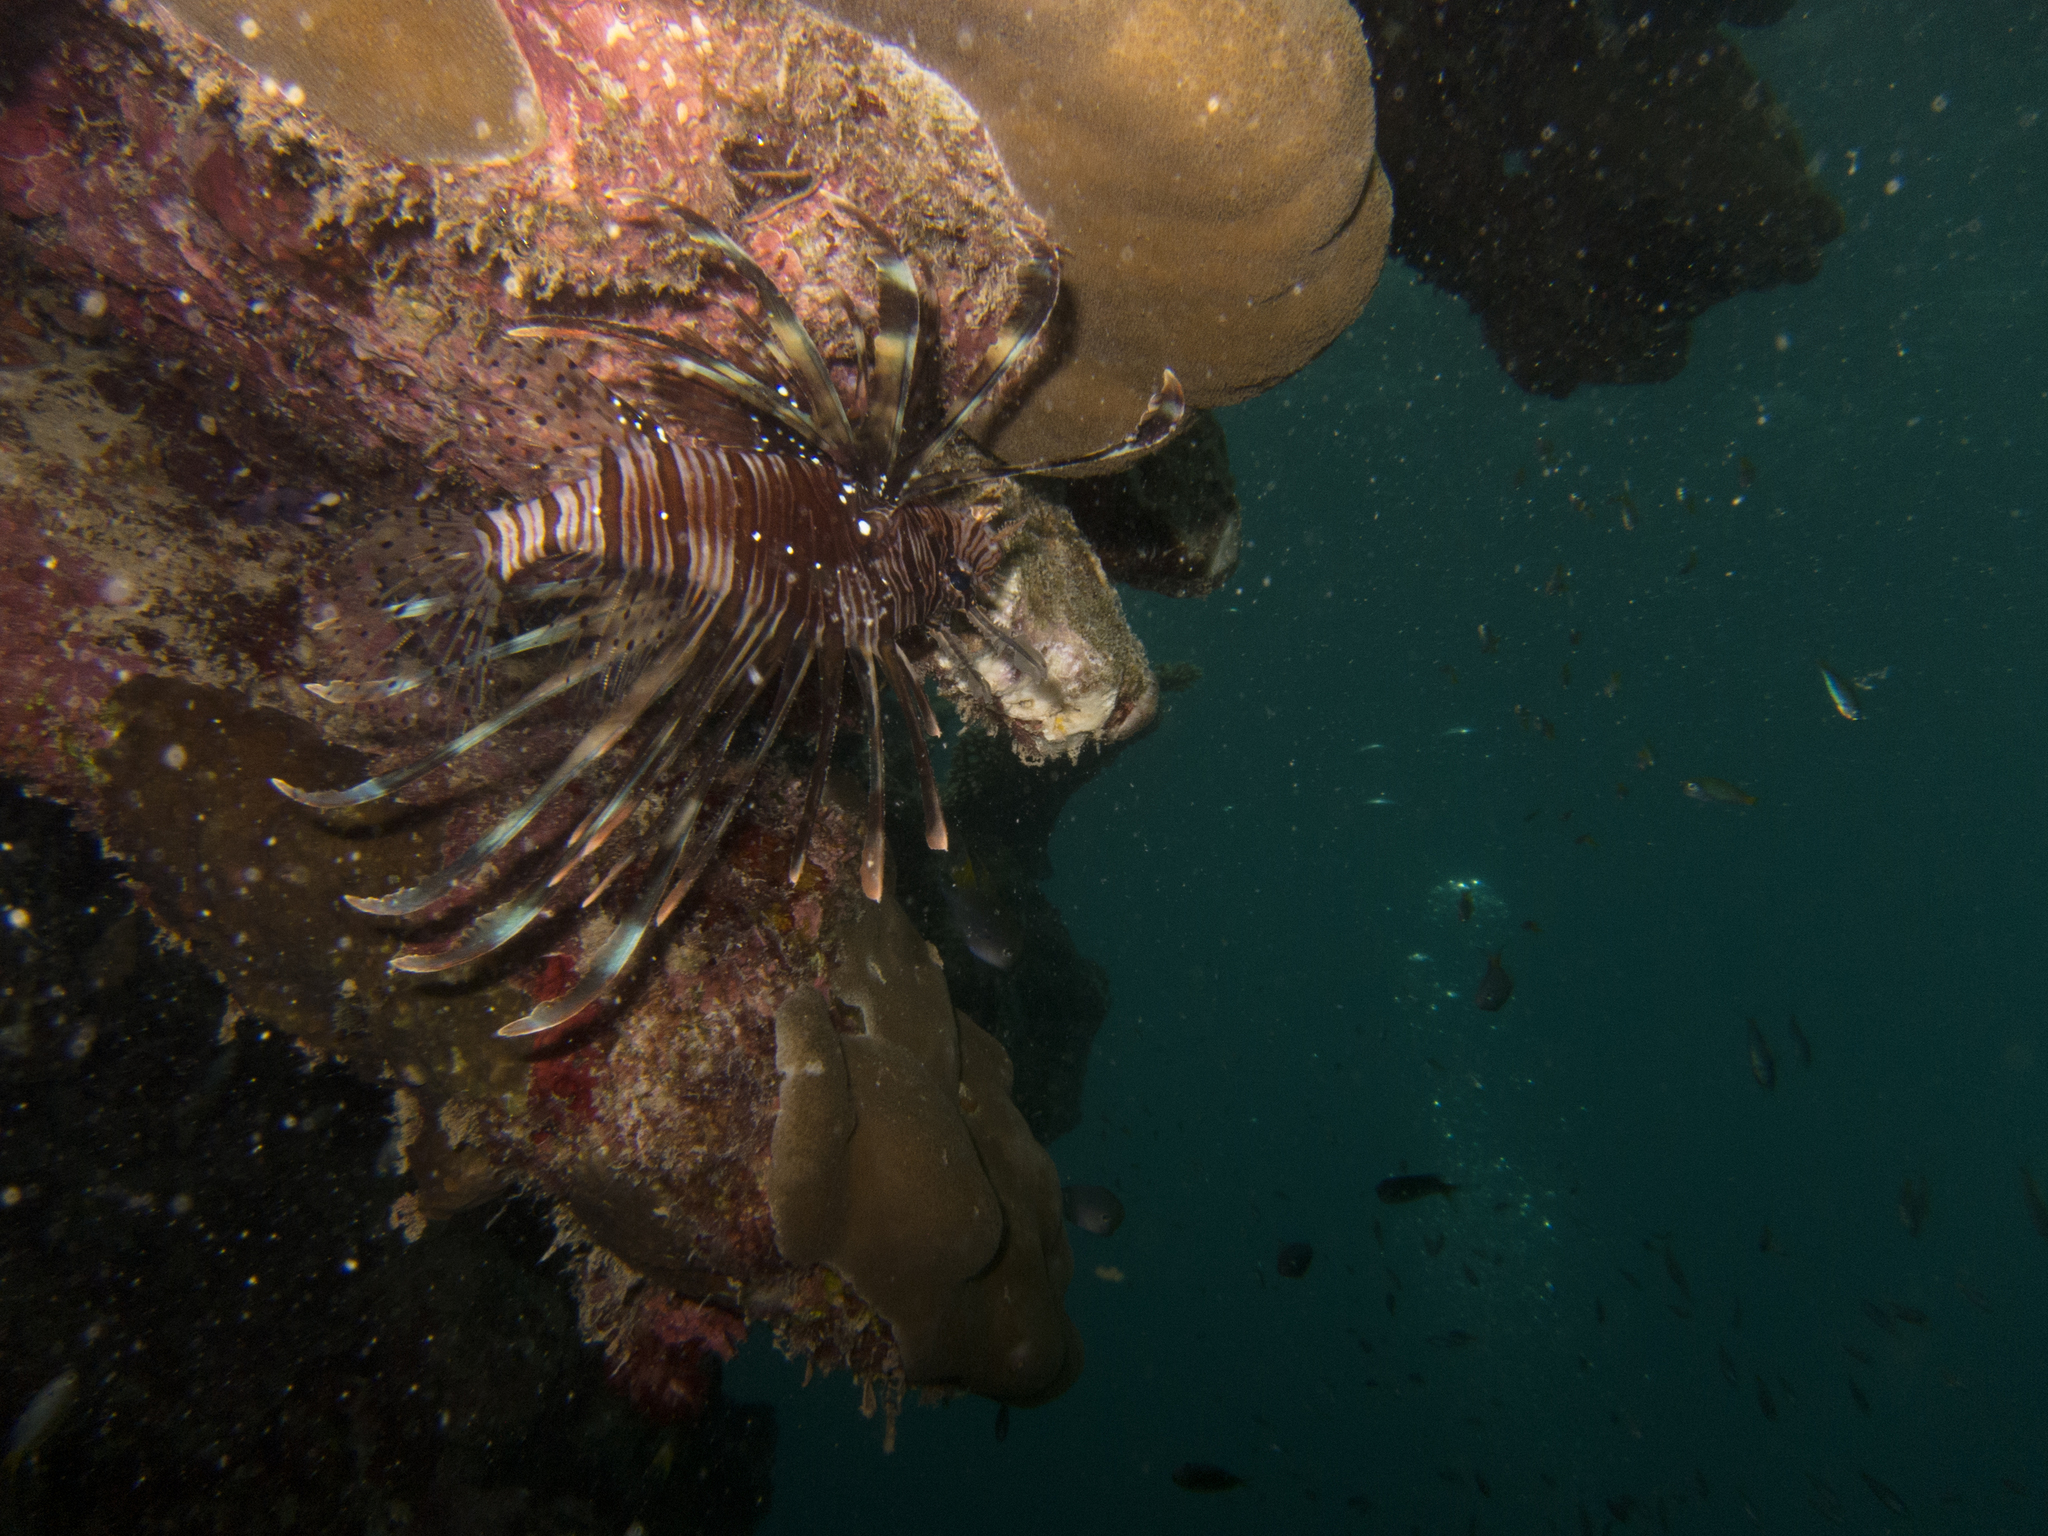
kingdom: Animalia
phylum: Chordata
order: Scorpaeniformes
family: Scorpaenidae
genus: Pterois
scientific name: Pterois miles
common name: Devil firefish
